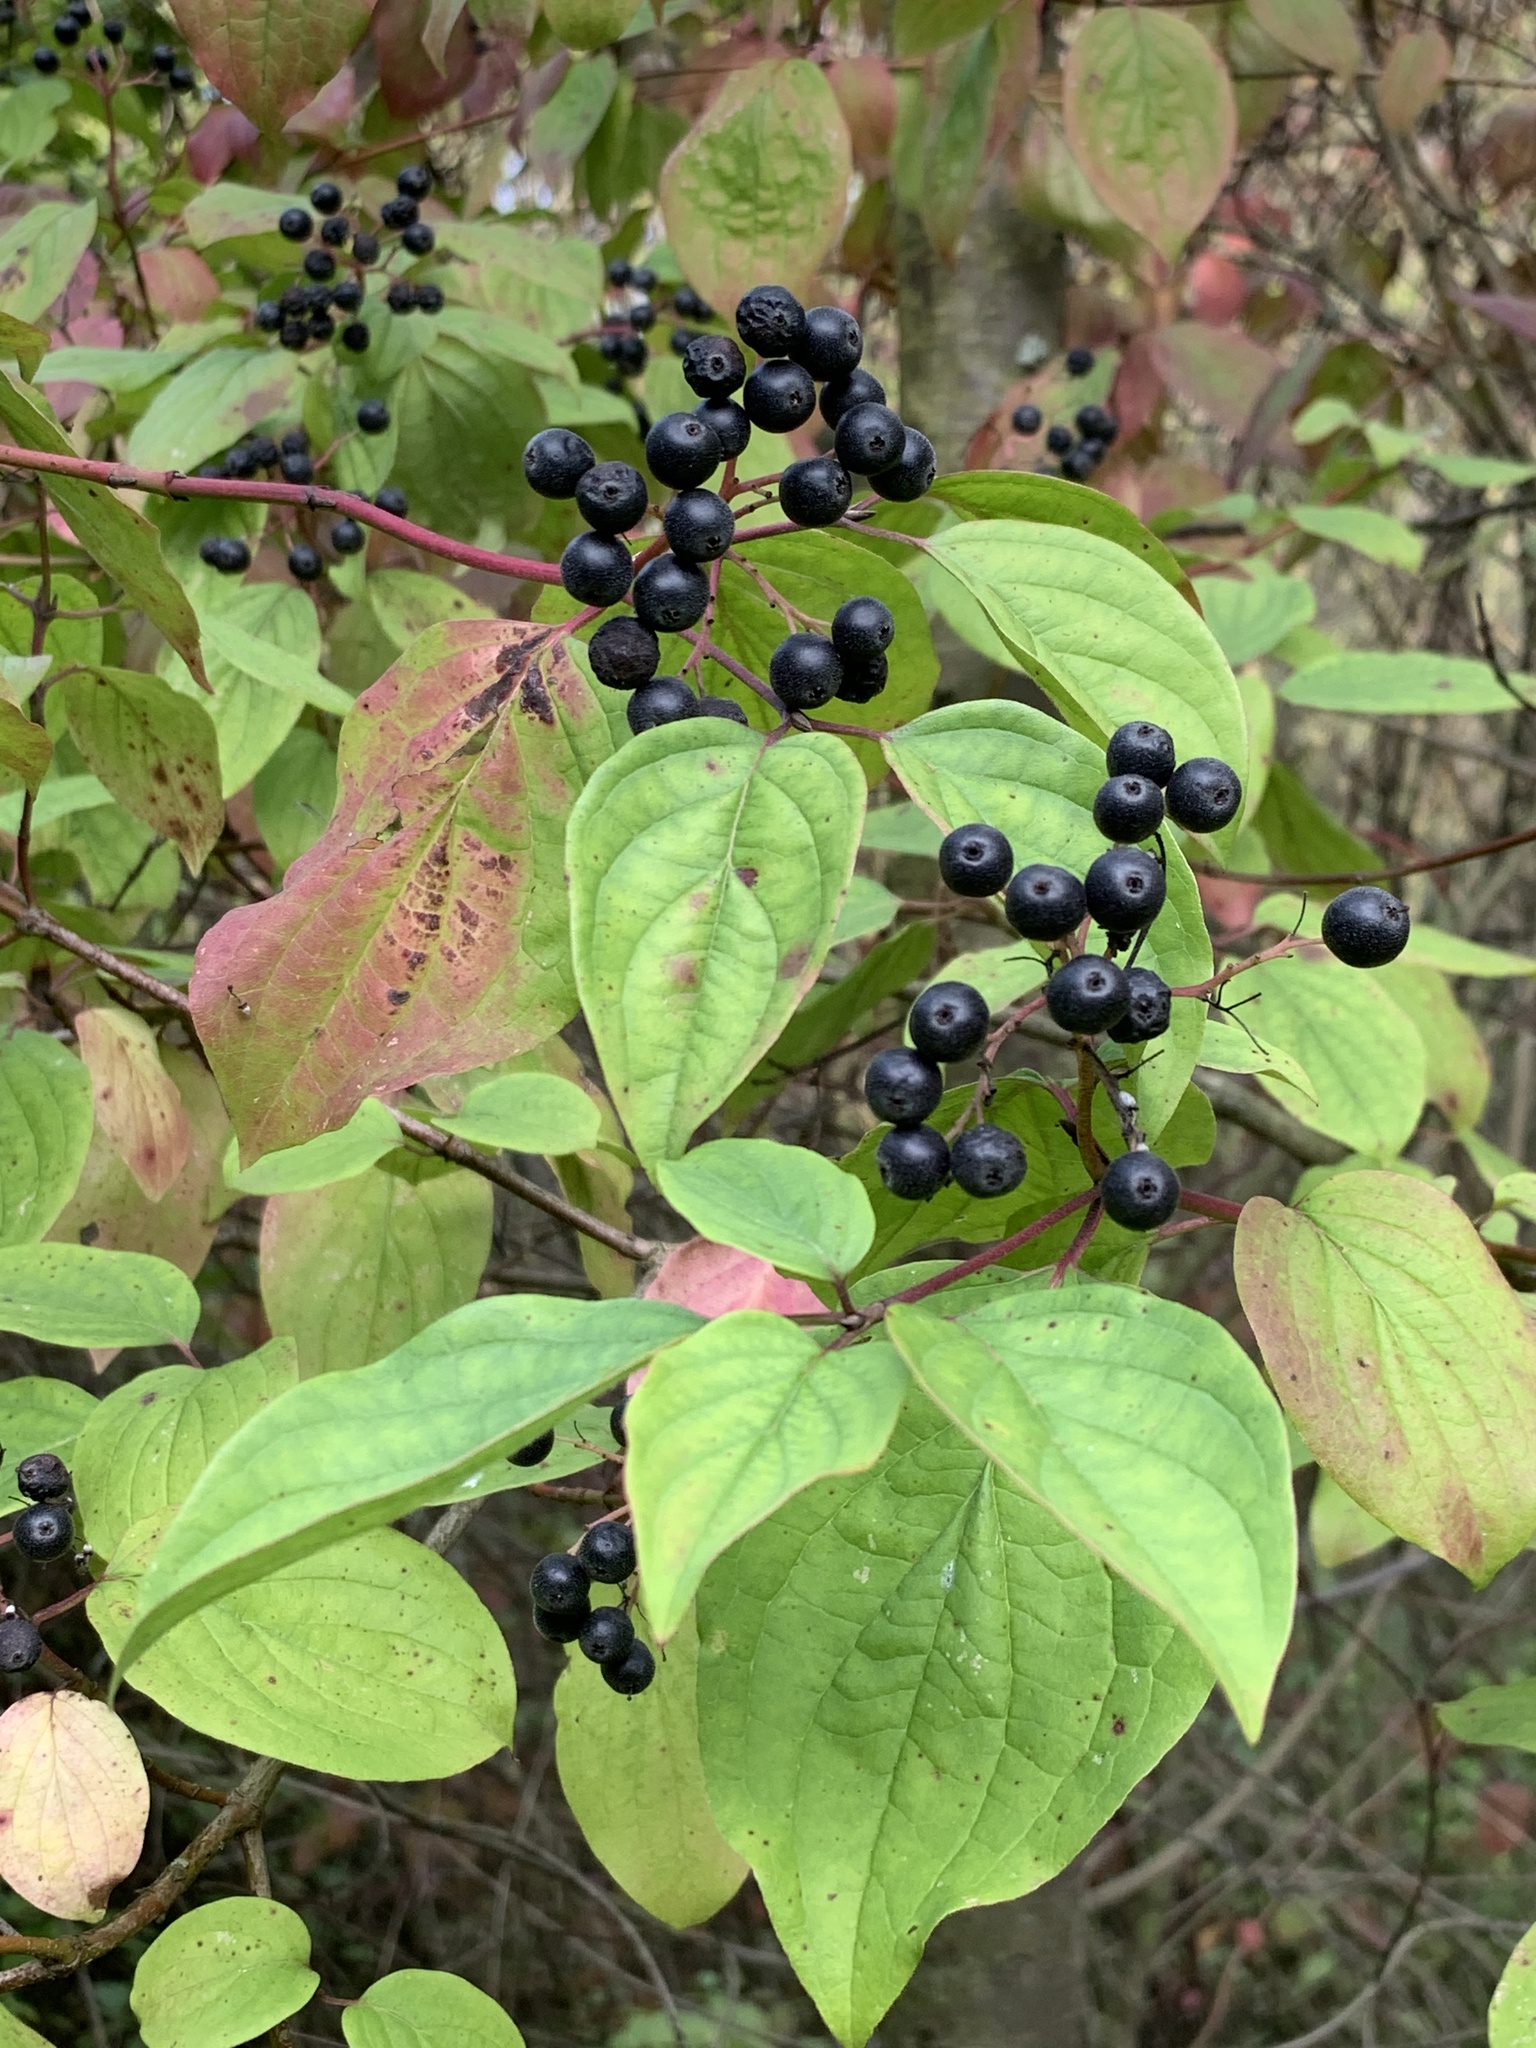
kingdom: Plantae
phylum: Tracheophyta
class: Magnoliopsida
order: Cornales
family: Cornaceae
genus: Cornus
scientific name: Cornus sanguinea
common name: Dogwood
